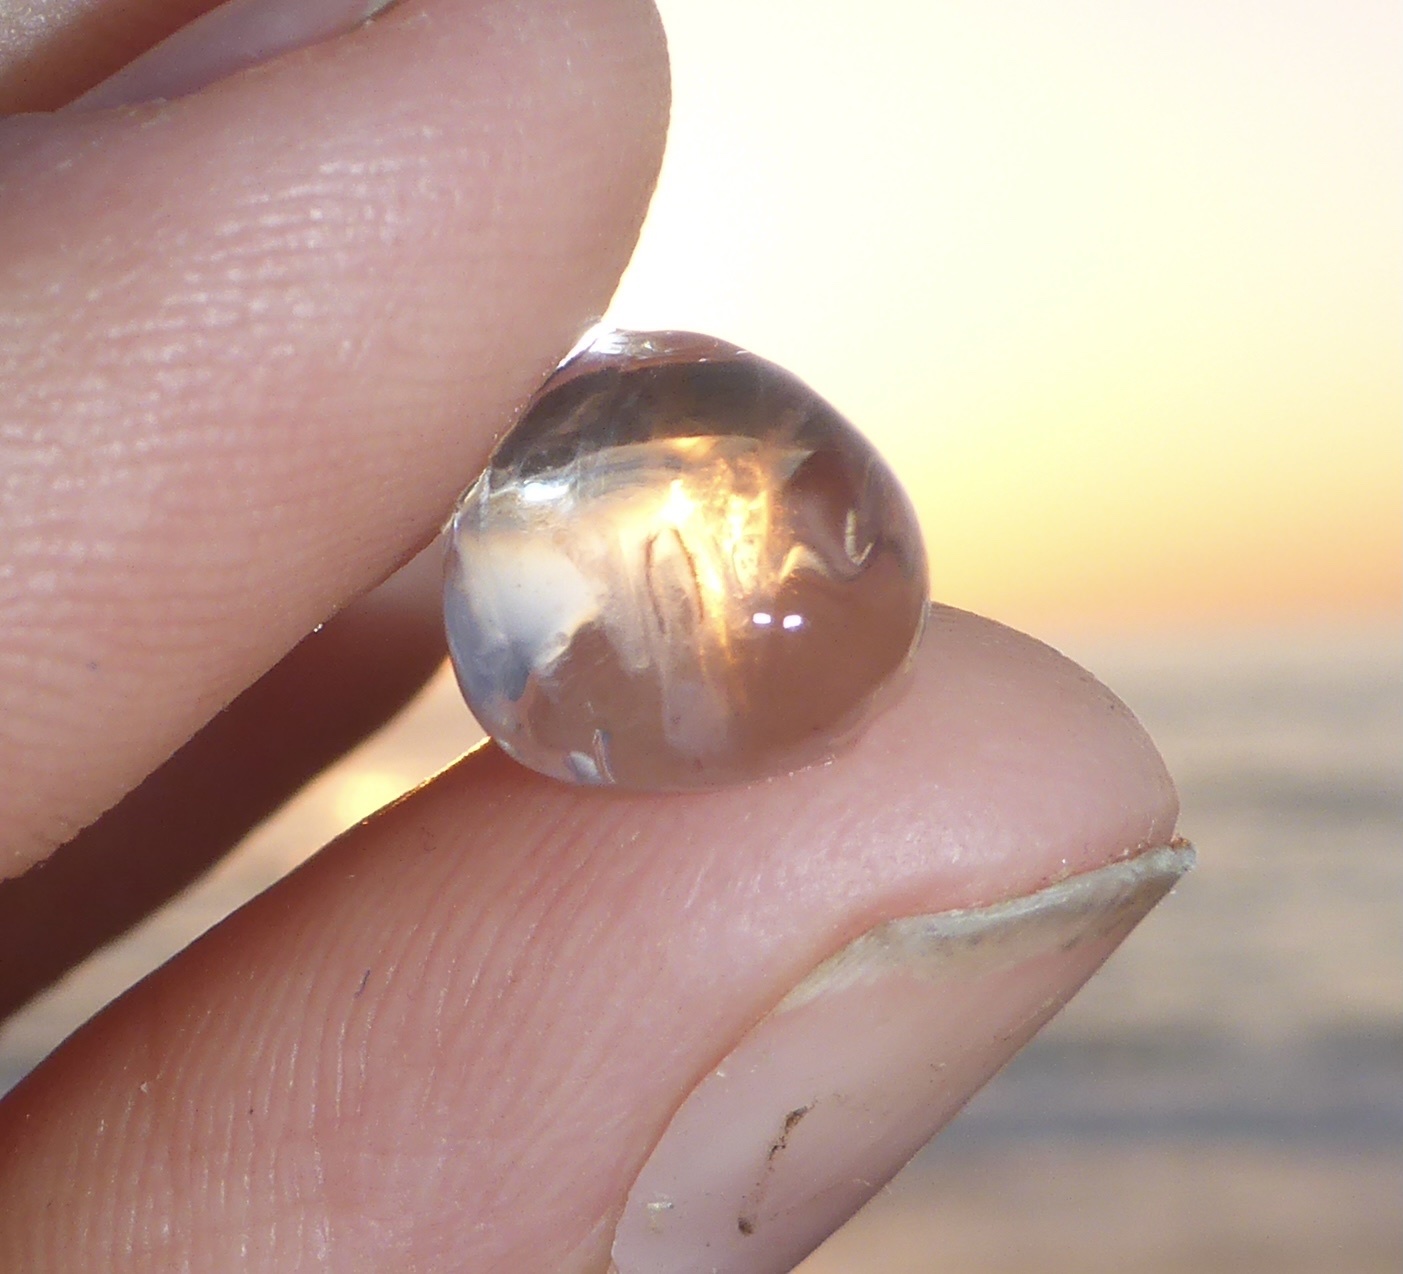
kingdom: Animalia
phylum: Ctenophora
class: Tentaculata
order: Cydippida
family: Pleurobrachiidae
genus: Pleurobrachia
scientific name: Pleurobrachia bachei
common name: Pacific sea gooseberry
